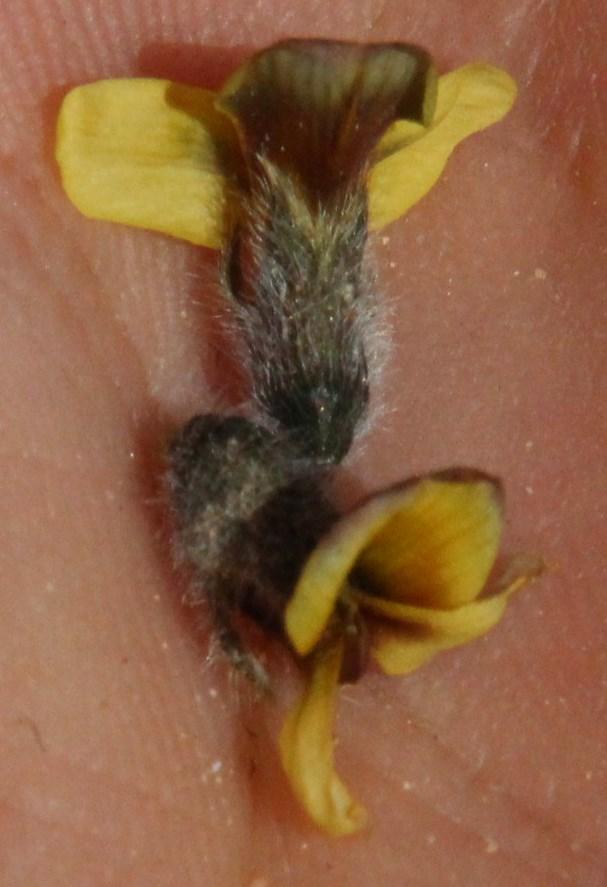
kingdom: Plantae
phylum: Tracheophyta
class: Magnoliopsida
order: Fabales
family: Fabaceae
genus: Euchlora
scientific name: Euchlora hirsuta
